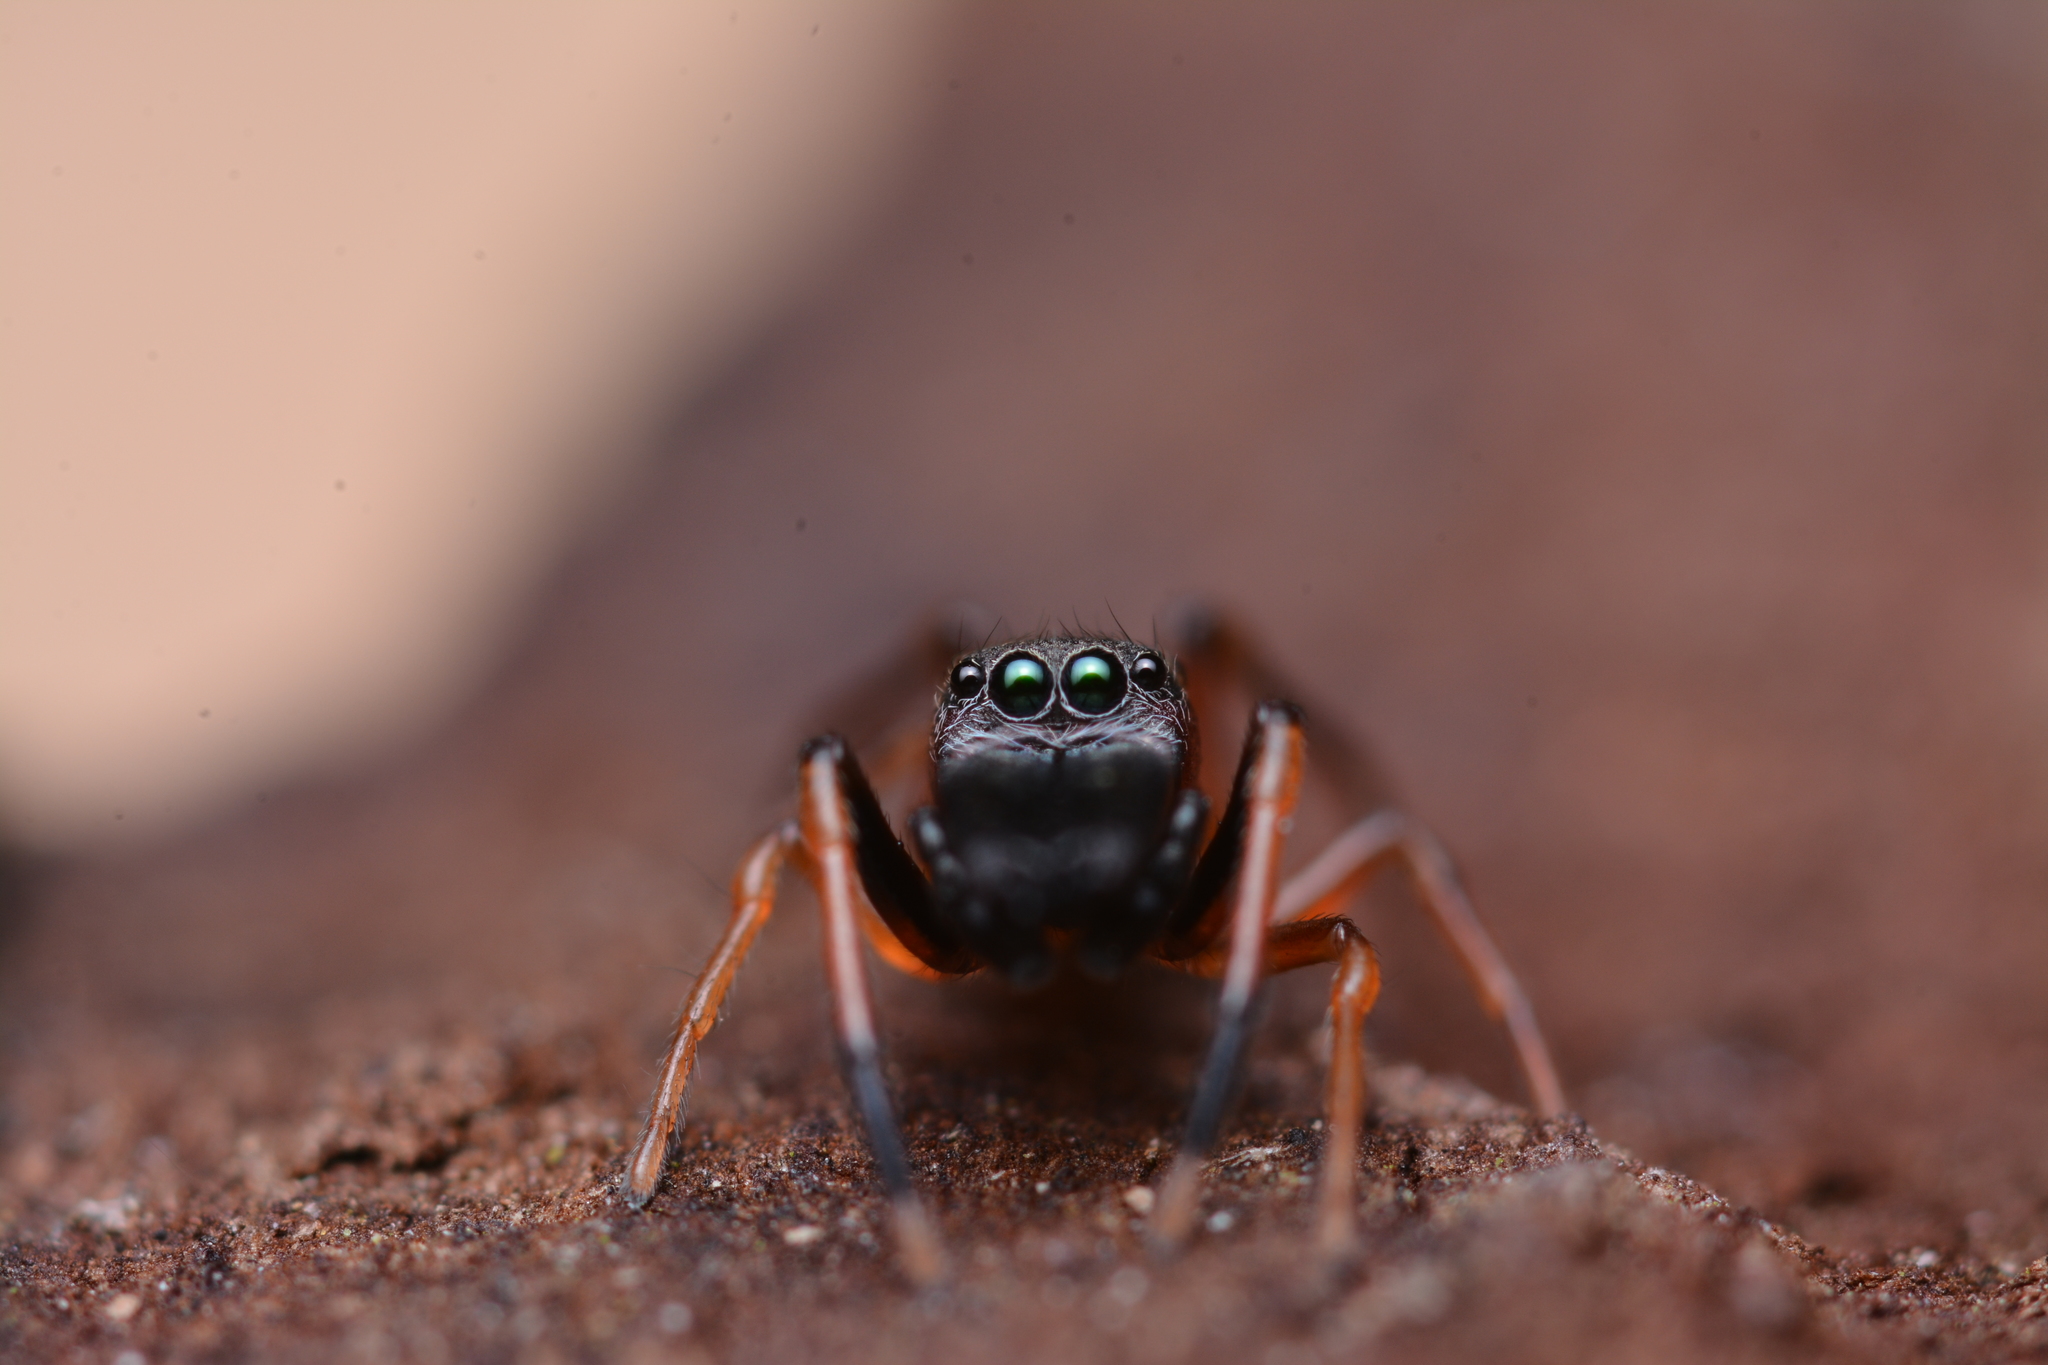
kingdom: Animalia
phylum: Arthropoda
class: Arachnida
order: Araneae
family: Salticidae
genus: Myrmarachne
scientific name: Myrmarachne formicaria
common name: Ant mimic jumping spider
